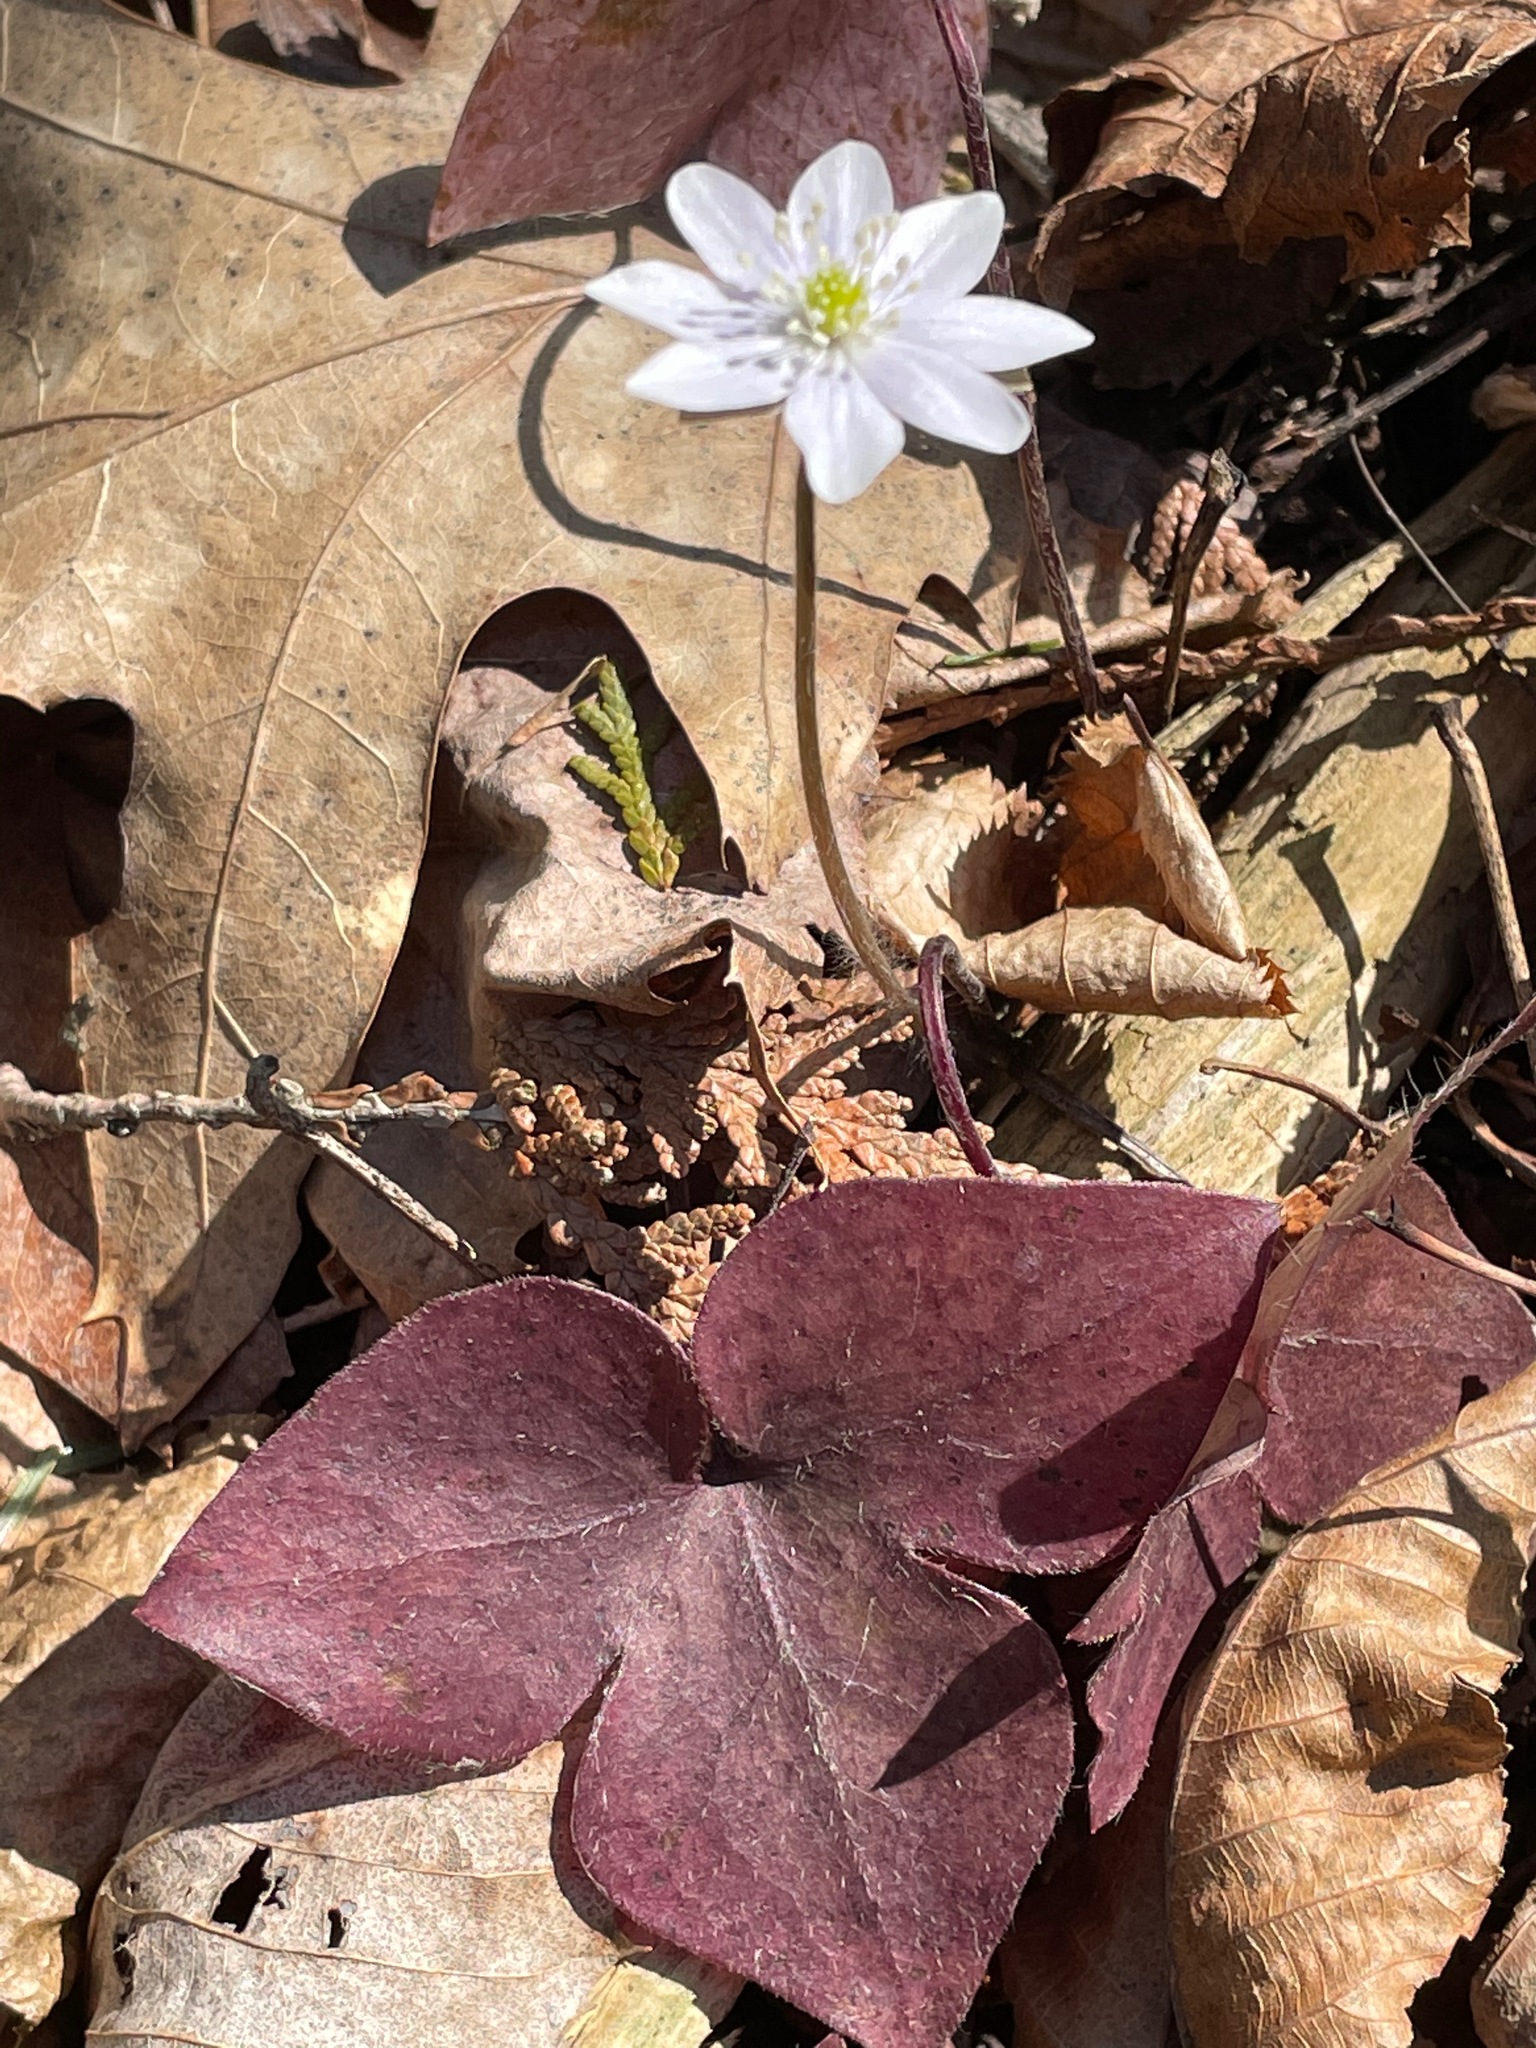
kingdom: Plantae
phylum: Tracheophyta
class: Magnoliopsida
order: Ranunculales
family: Ranunculaceae
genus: Hepatica
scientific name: Hepatica acutiloba
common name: Sharp-lobed hepatica
